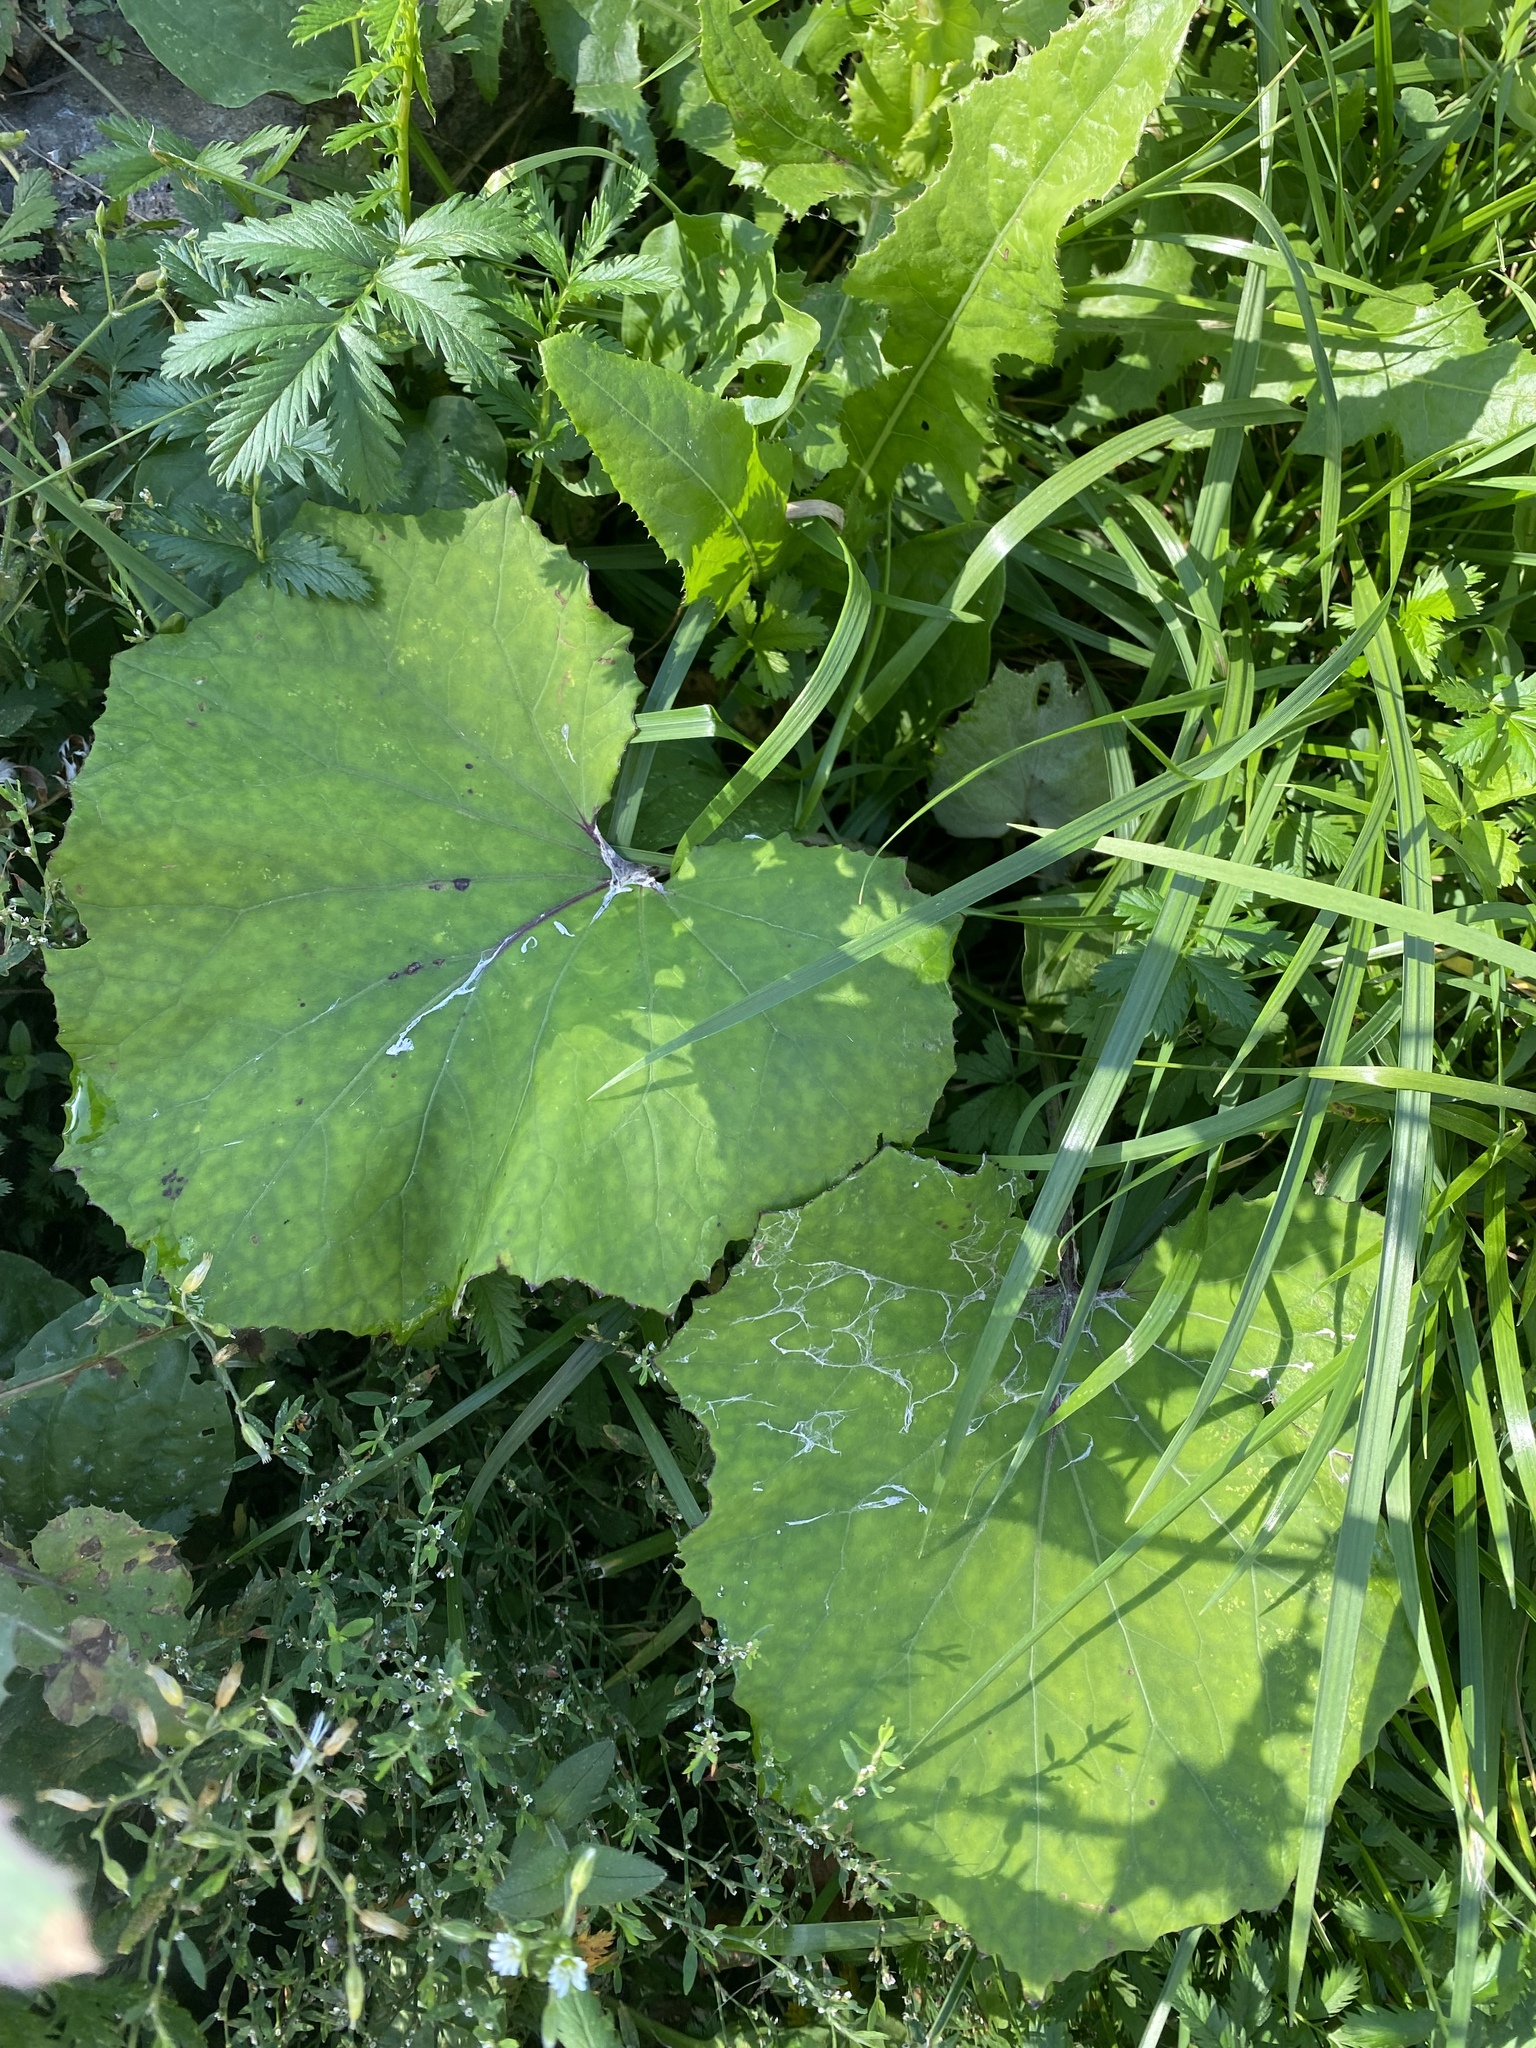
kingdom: Plantae
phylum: Tracheophyta
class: Magnoliopsida
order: Asterales
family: Asteraceae
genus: Tussilago
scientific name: Tussilago farfara
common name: Coltsfoot
